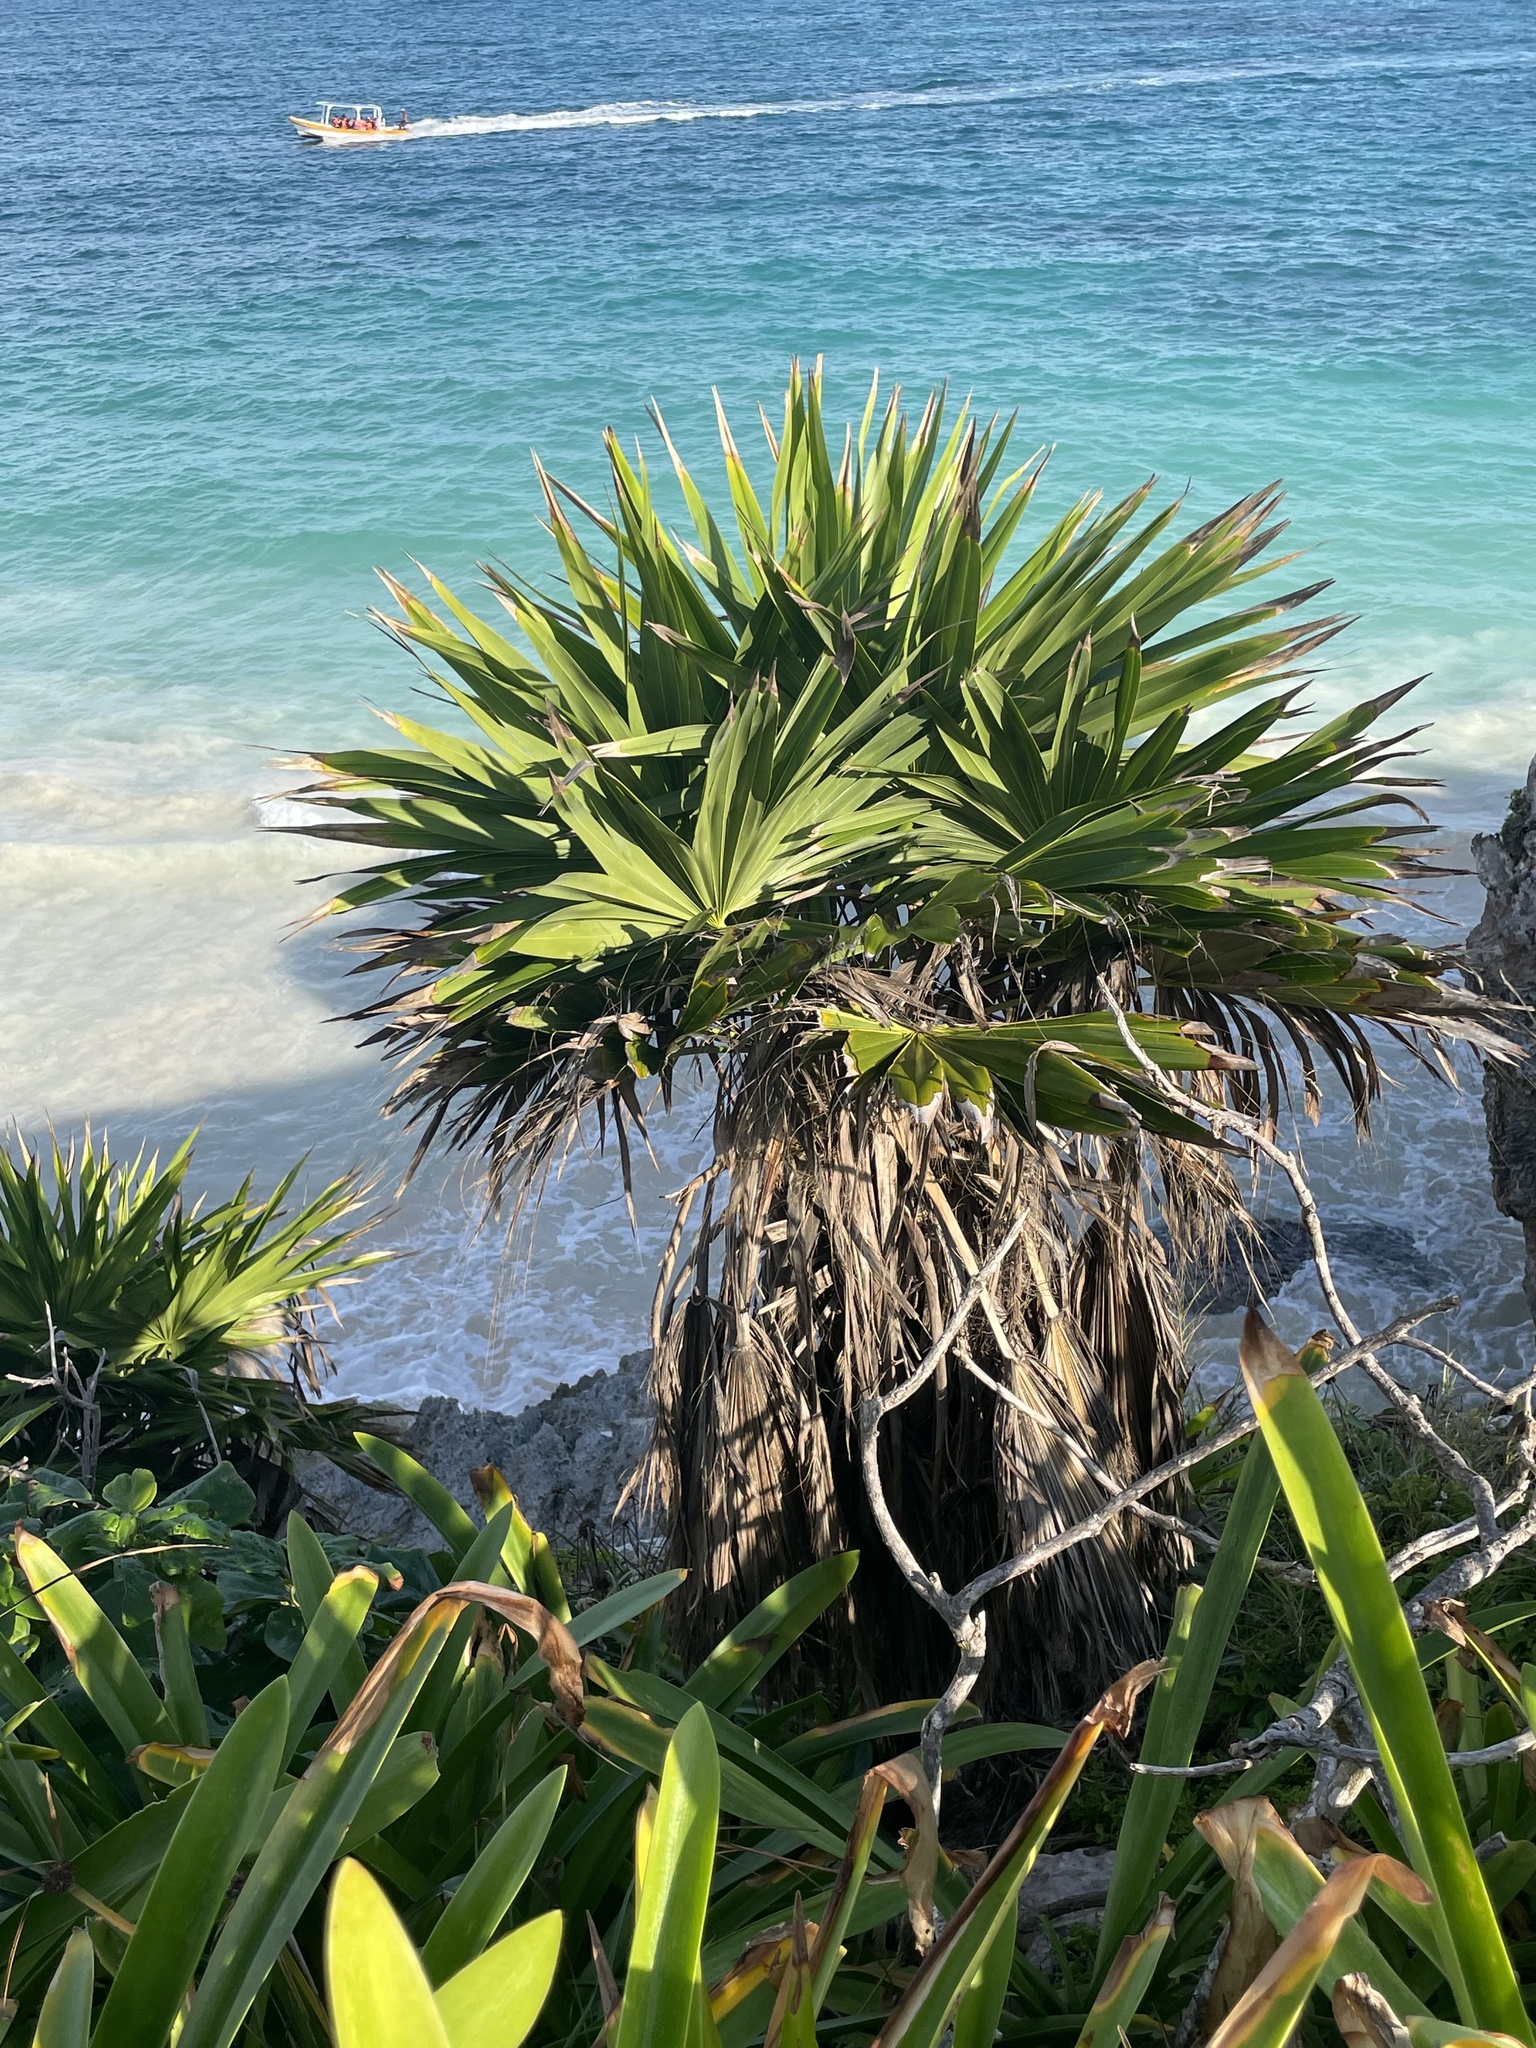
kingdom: Plantae
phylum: Tracheophyta
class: Liliopsida
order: Arecales
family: Arecaceae
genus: Thrinax
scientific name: Thrinax radiata
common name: Florida thatch
